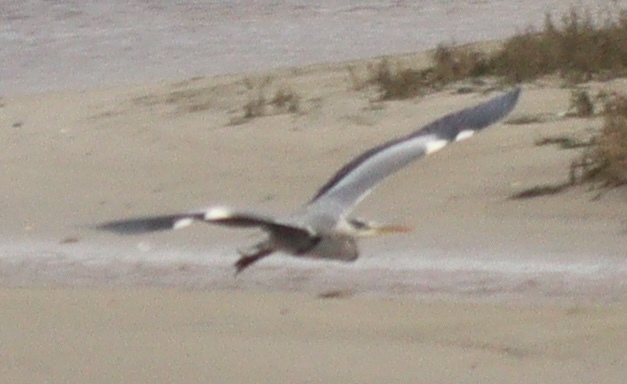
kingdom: Animalia
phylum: Chordata
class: Aves
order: Pelecaniformes
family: Ardeidae
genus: Ardea
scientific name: Ardea cinerea
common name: Grey heron
